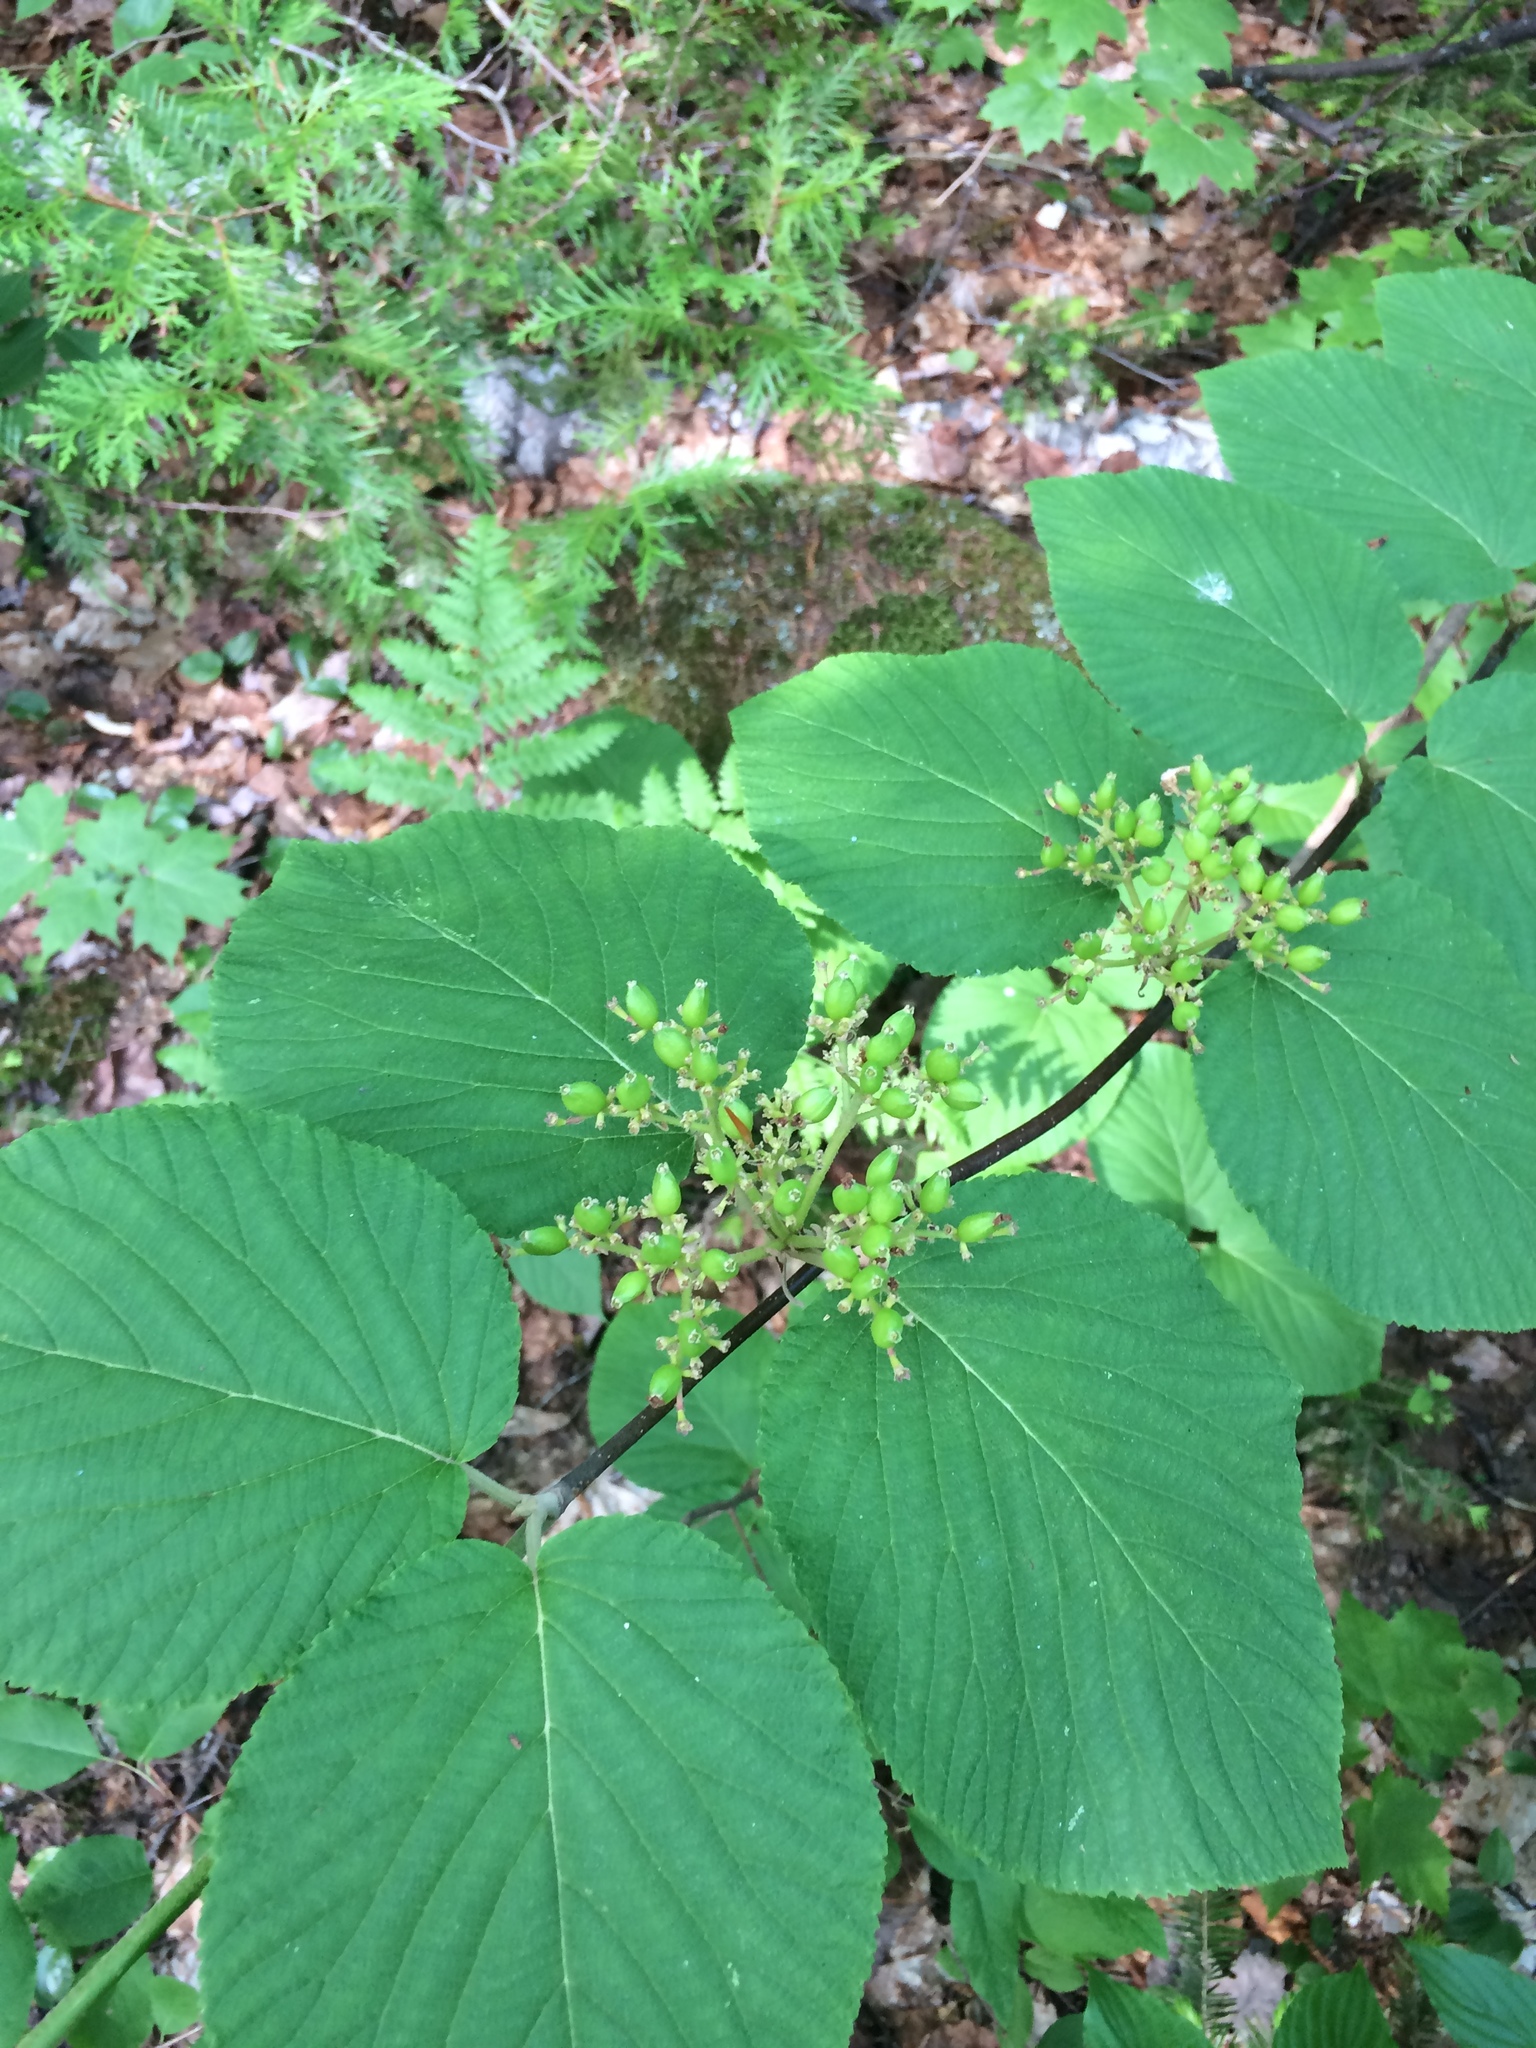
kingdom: Plantae
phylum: Tracheophyta
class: Magnoliopsida
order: Dipsacales
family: Viburnaceae
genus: Viburnum
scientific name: Viburnum lantanoides
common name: Hobblebush
